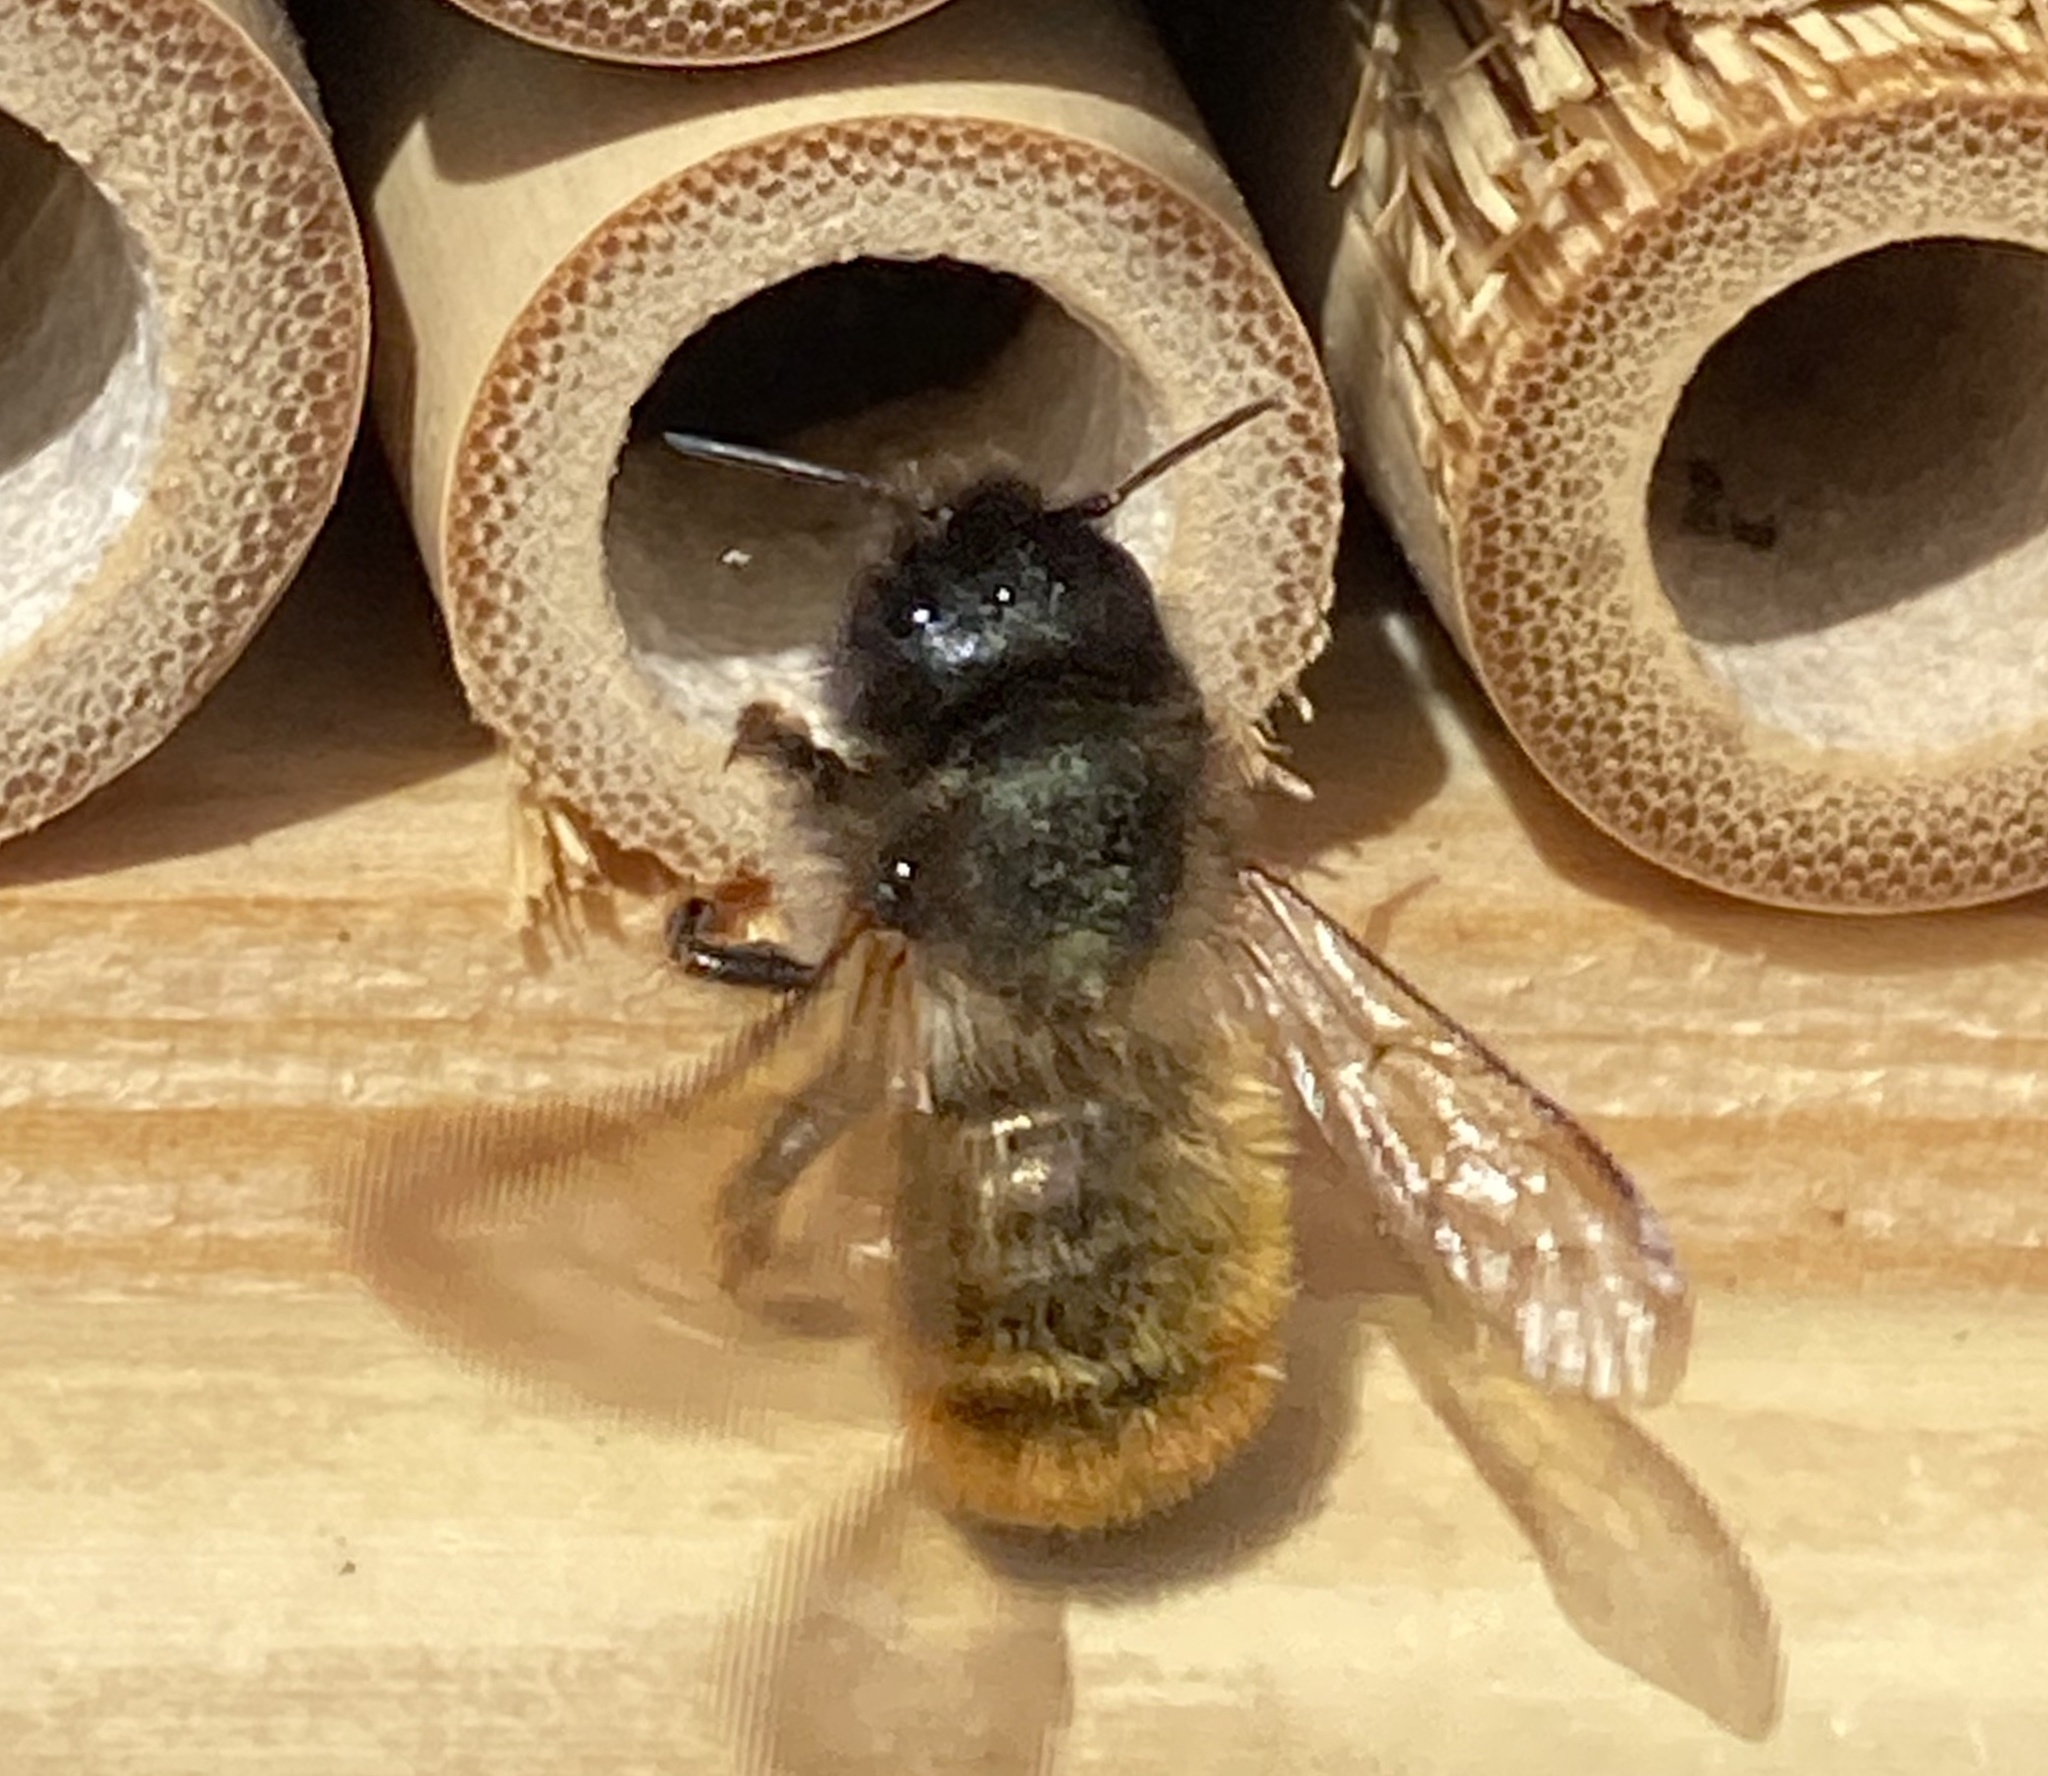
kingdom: Animalia
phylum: Arthropoda
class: Insecta
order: Hymenoptera
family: Megachilidae
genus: Osmia
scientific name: Osmia bicornis
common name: Red mason bee
